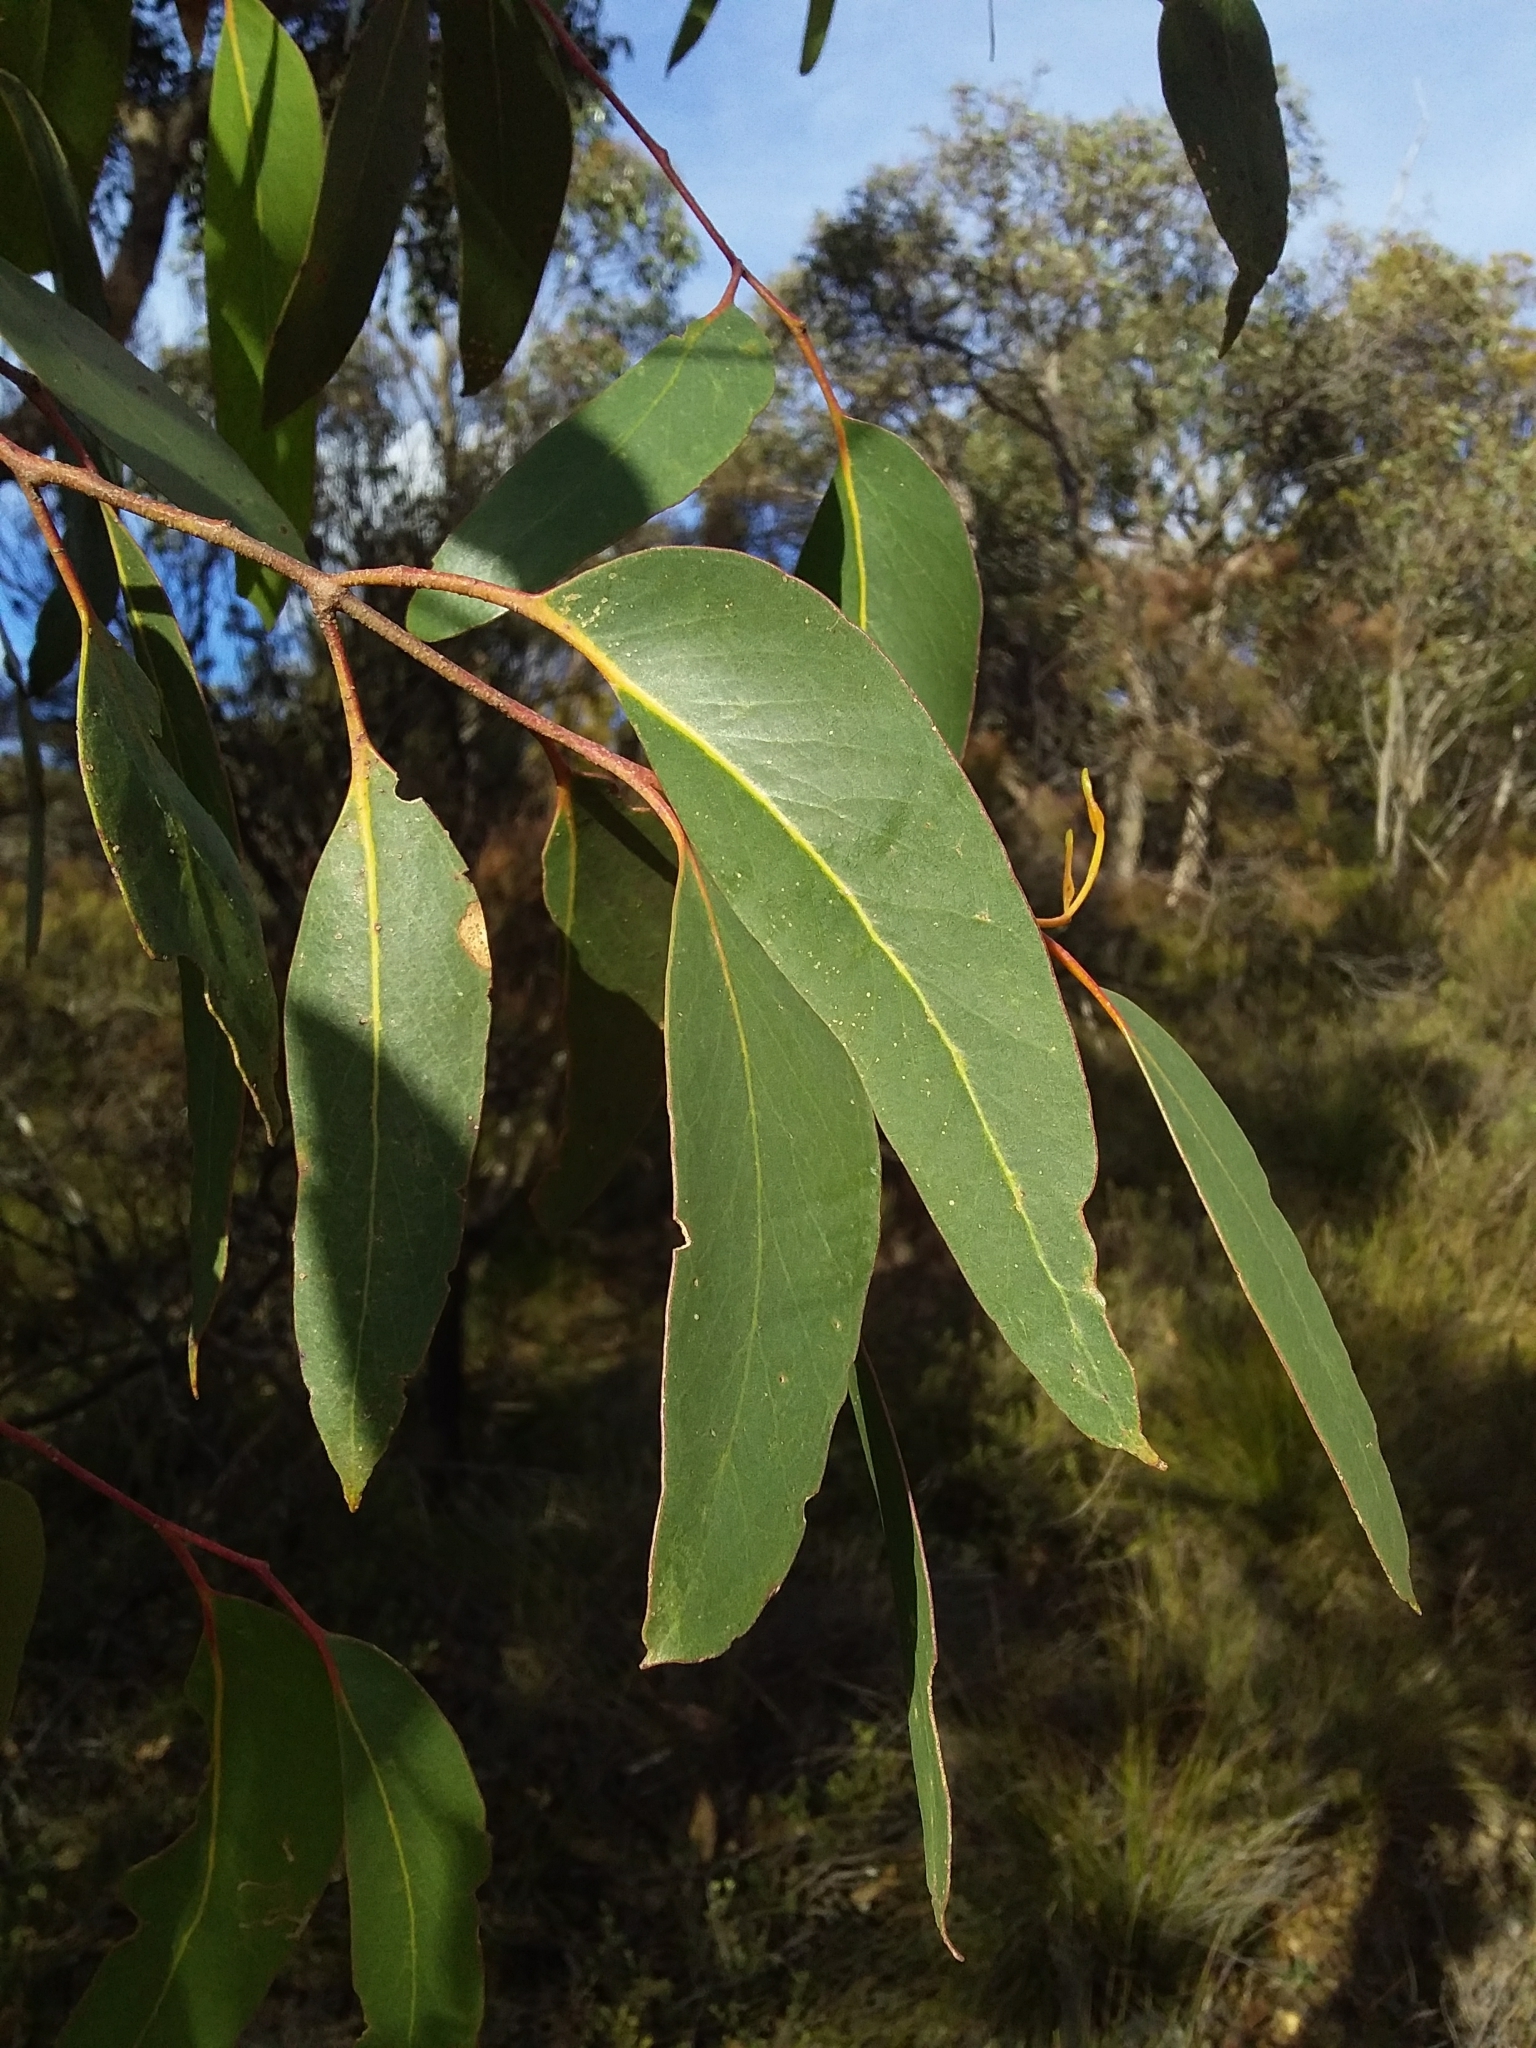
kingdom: Plantae
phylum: Tracheophyta
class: Magnoliopsida
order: Myrtales
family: Myrtaceae
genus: Eucalyptus
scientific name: Eucalyptus baxteri
